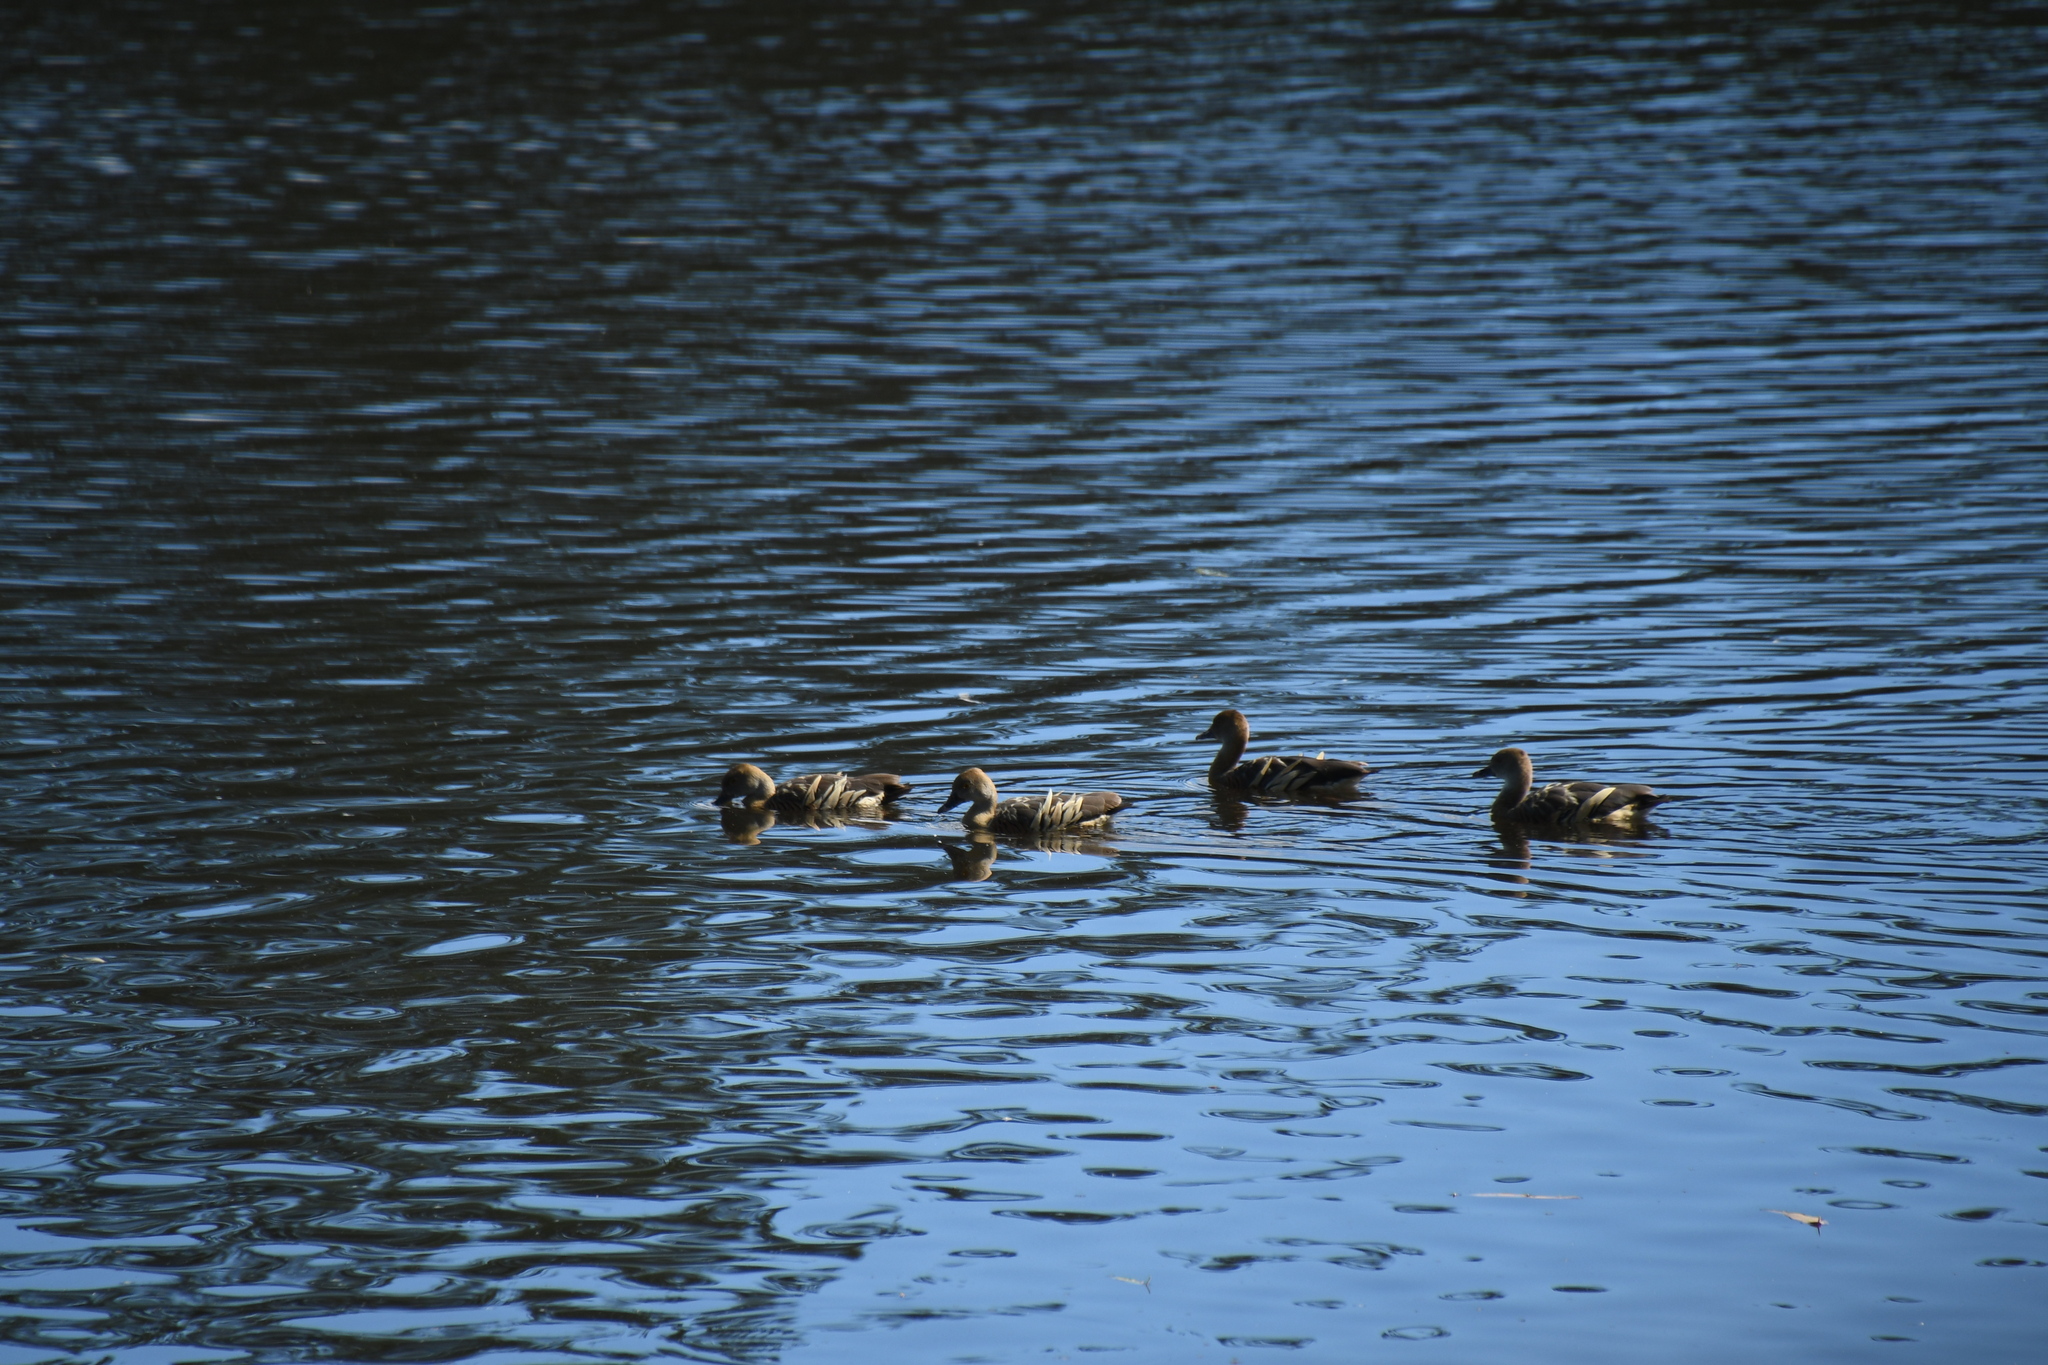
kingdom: Animalia
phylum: Chordata
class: Aves
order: Anseriformes
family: Anatidae
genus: Dendrocygna
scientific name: Dendrocygna eytoni
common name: Plumed whistling-duck
